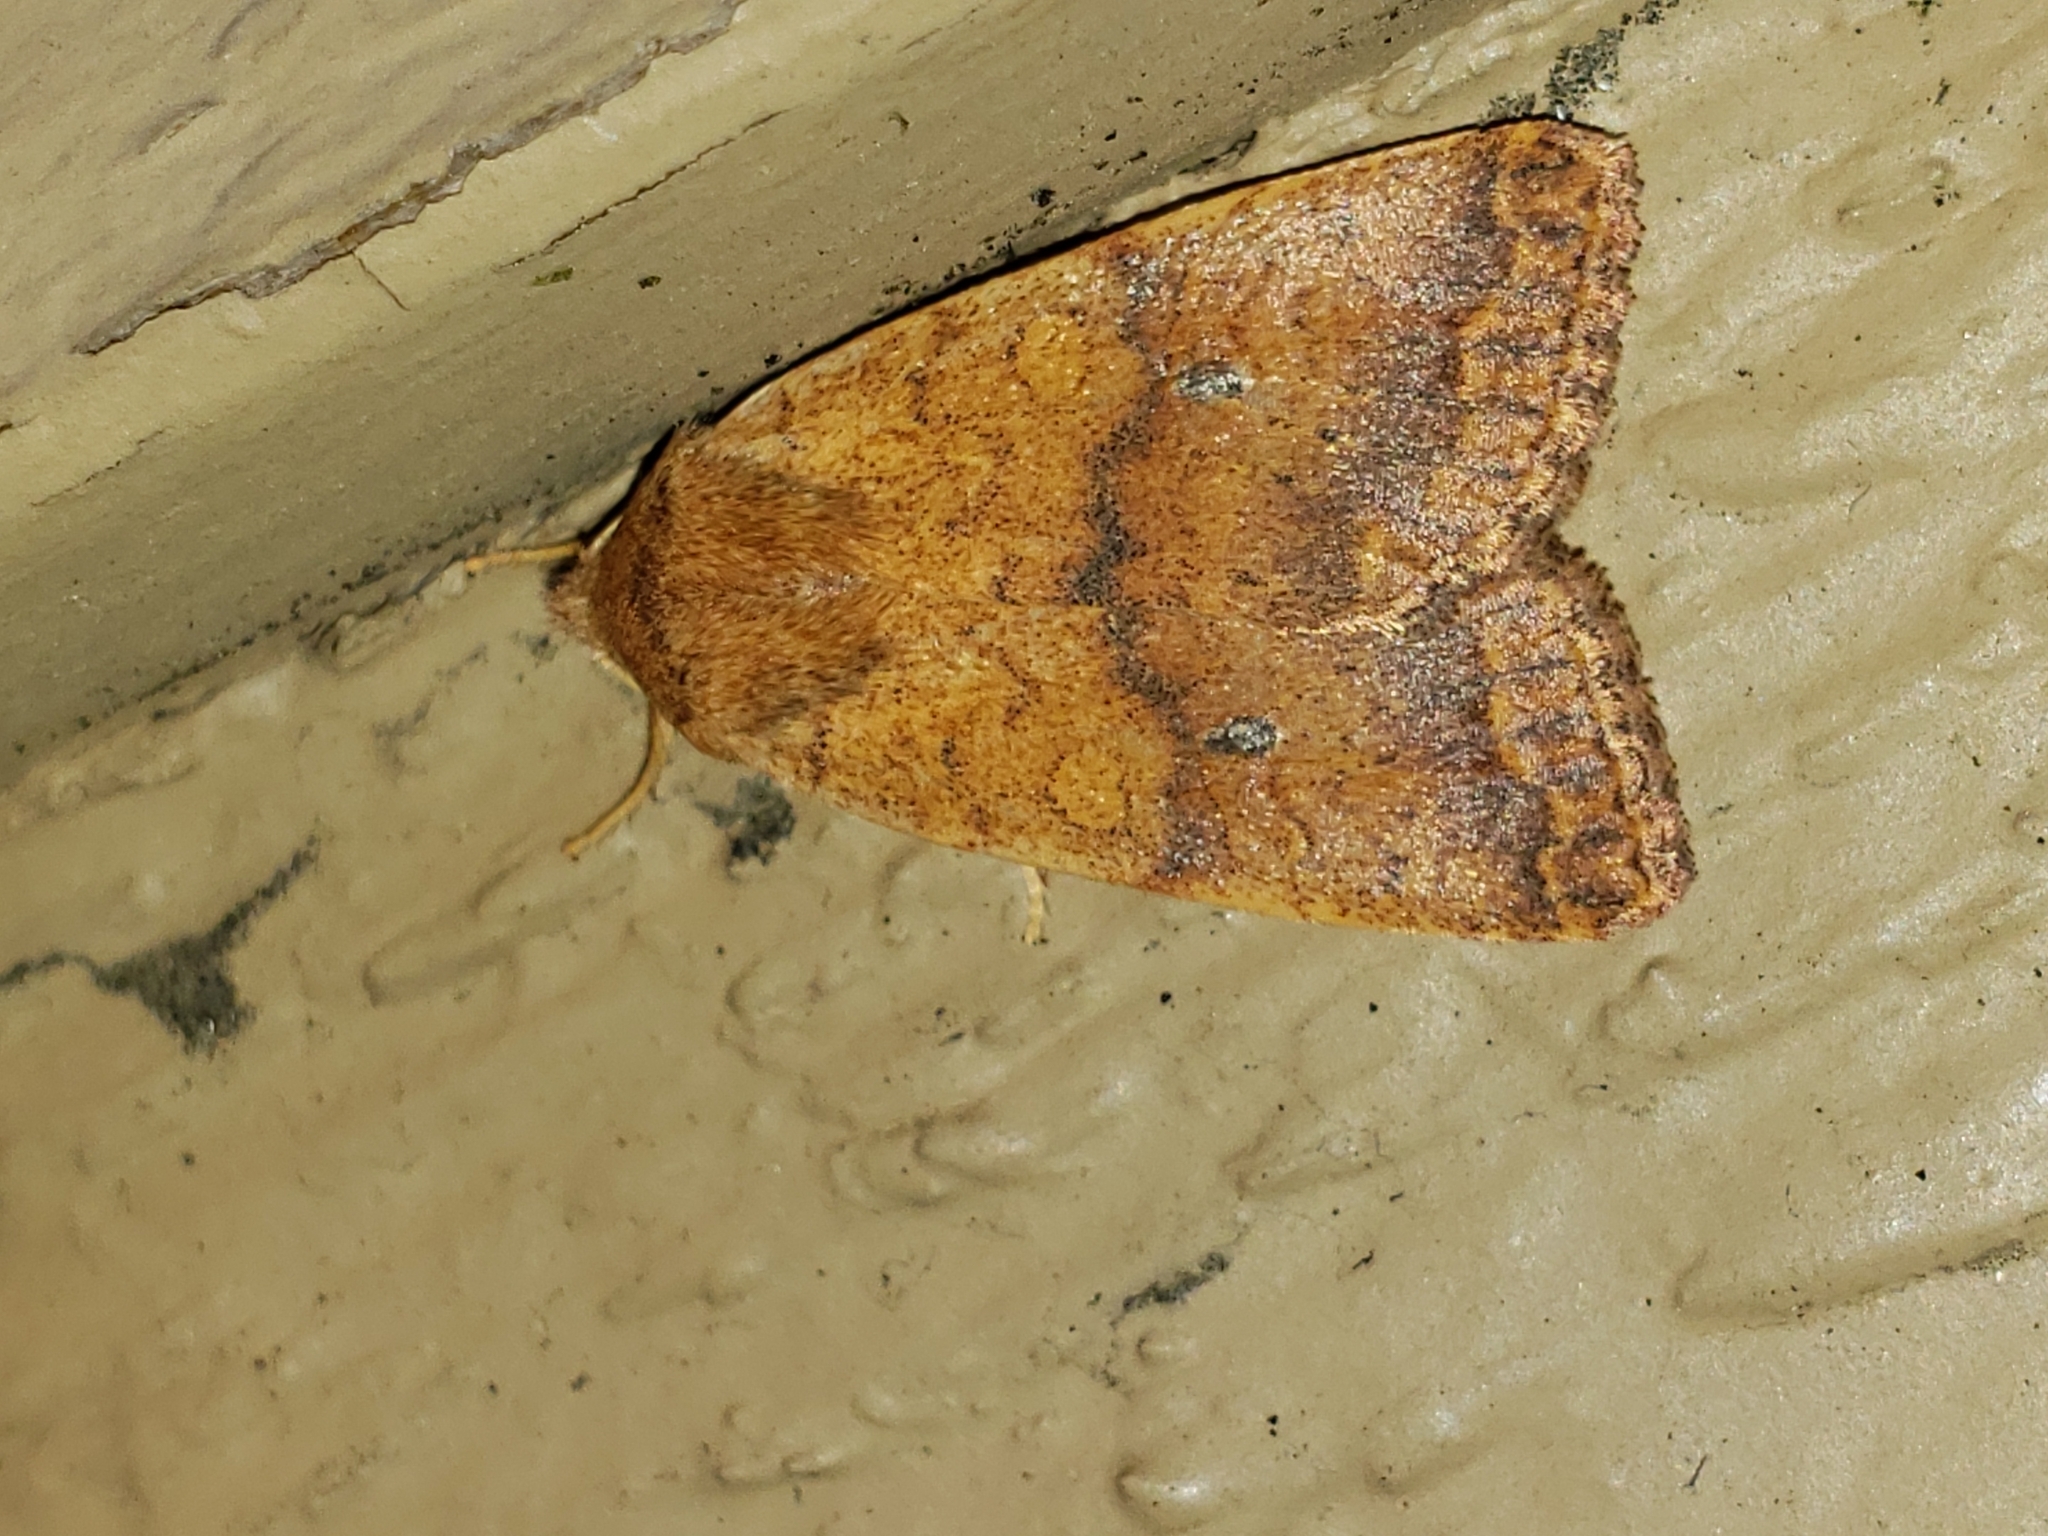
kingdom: Animalia
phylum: Arthropoda
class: Insecta
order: Lepidoptera
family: Noctuidae
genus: Agrochola
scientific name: Agrochola bicolorago
